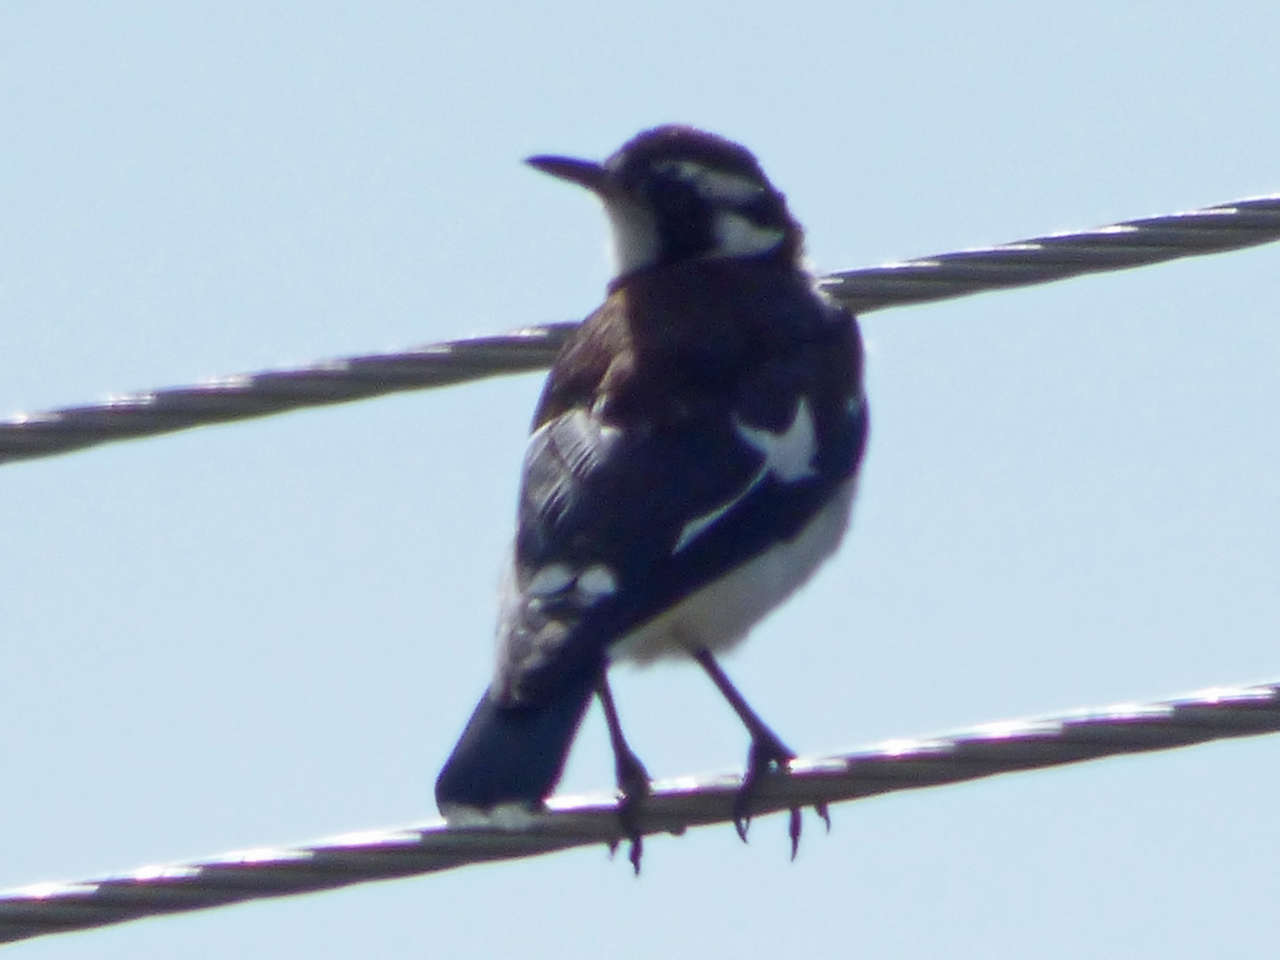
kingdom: Animalia
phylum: Chordata
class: Aves
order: Passeriformes
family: Monarchidae
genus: Grallina
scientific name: Grallina cyanoleuca
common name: Magpie-lark
